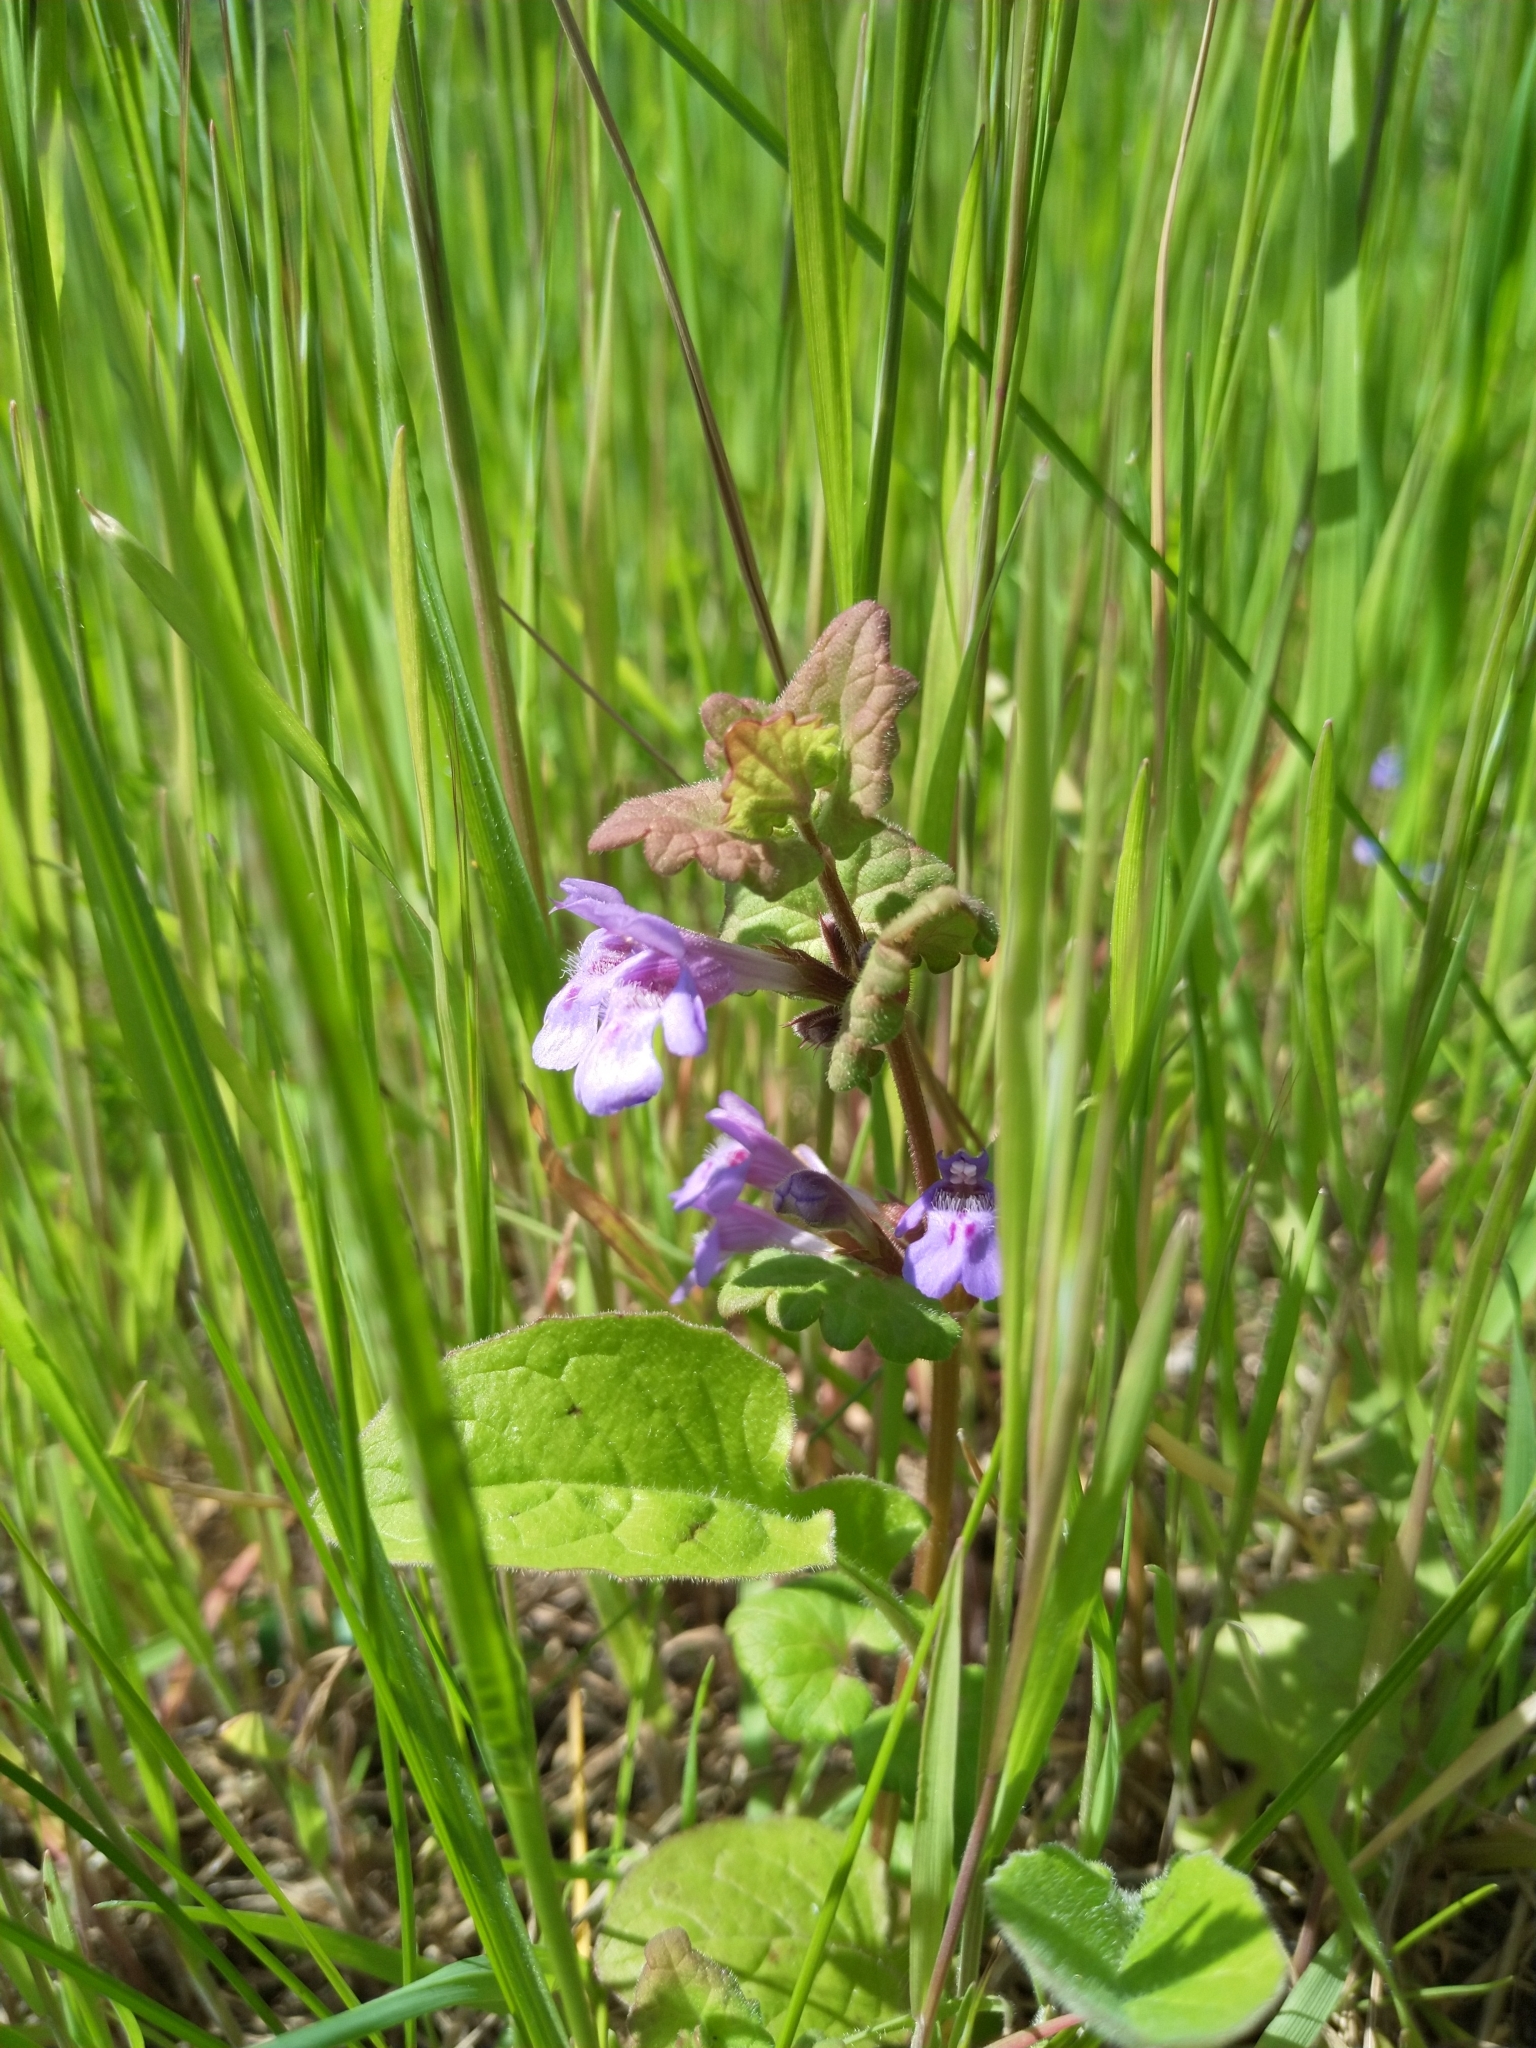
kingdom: Plantae
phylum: Tracheophyta
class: Magnoliopsida
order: Lamiales
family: Lamiaceae
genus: Glechoma
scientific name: Glechoma hederacea
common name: Ground ivy
